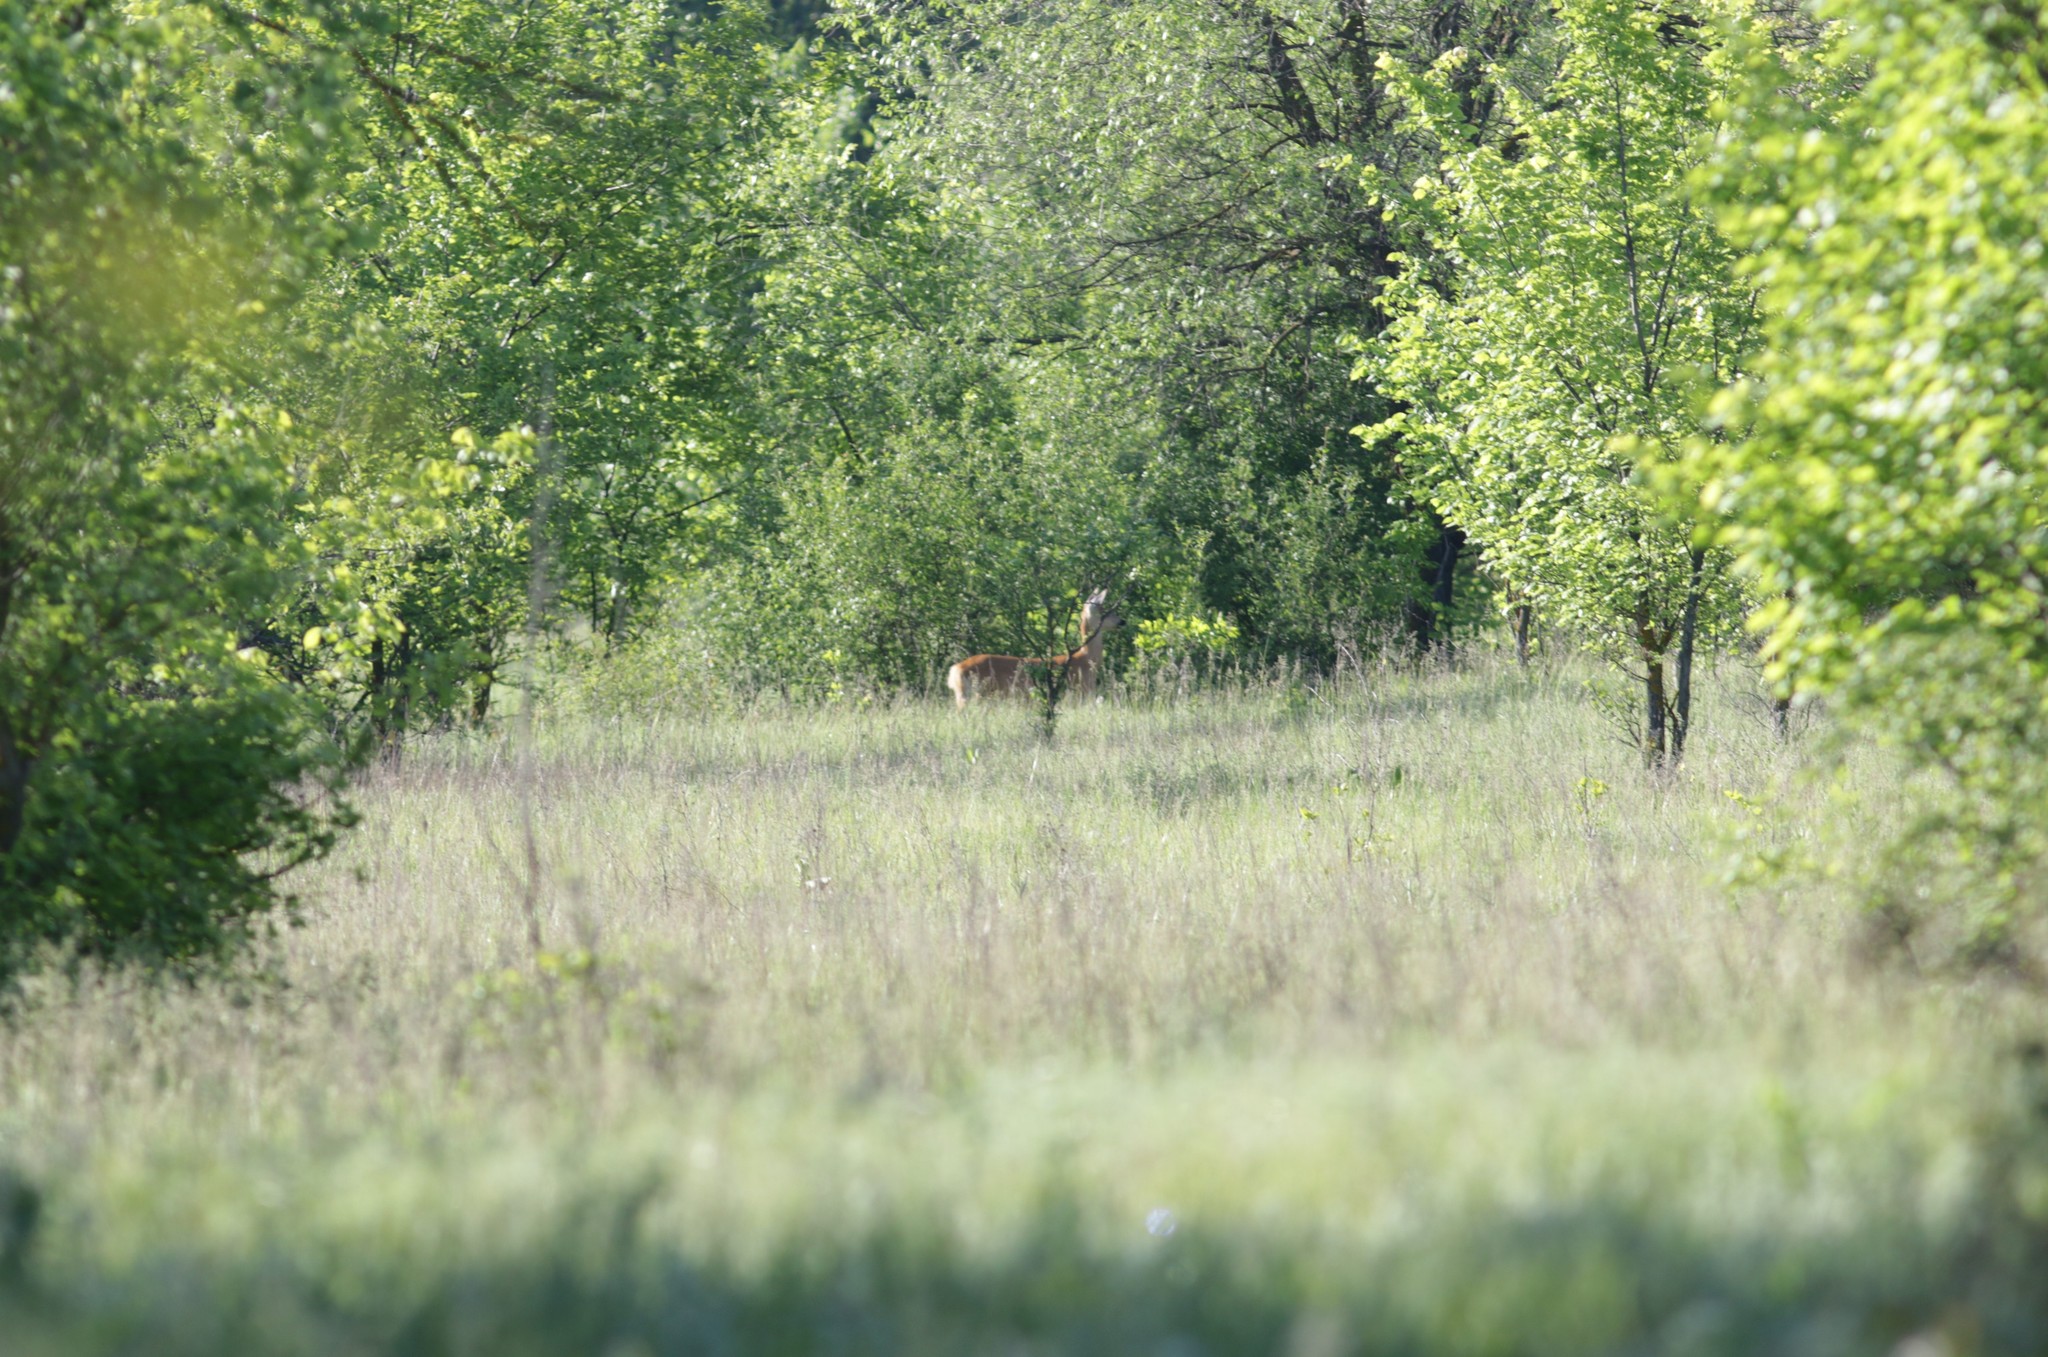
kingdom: Animalia
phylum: Chordata
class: Mammalia
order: Artiodactyla
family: Cervidae
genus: Capreolus
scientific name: Capreolus pygargus
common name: Siberian roe
